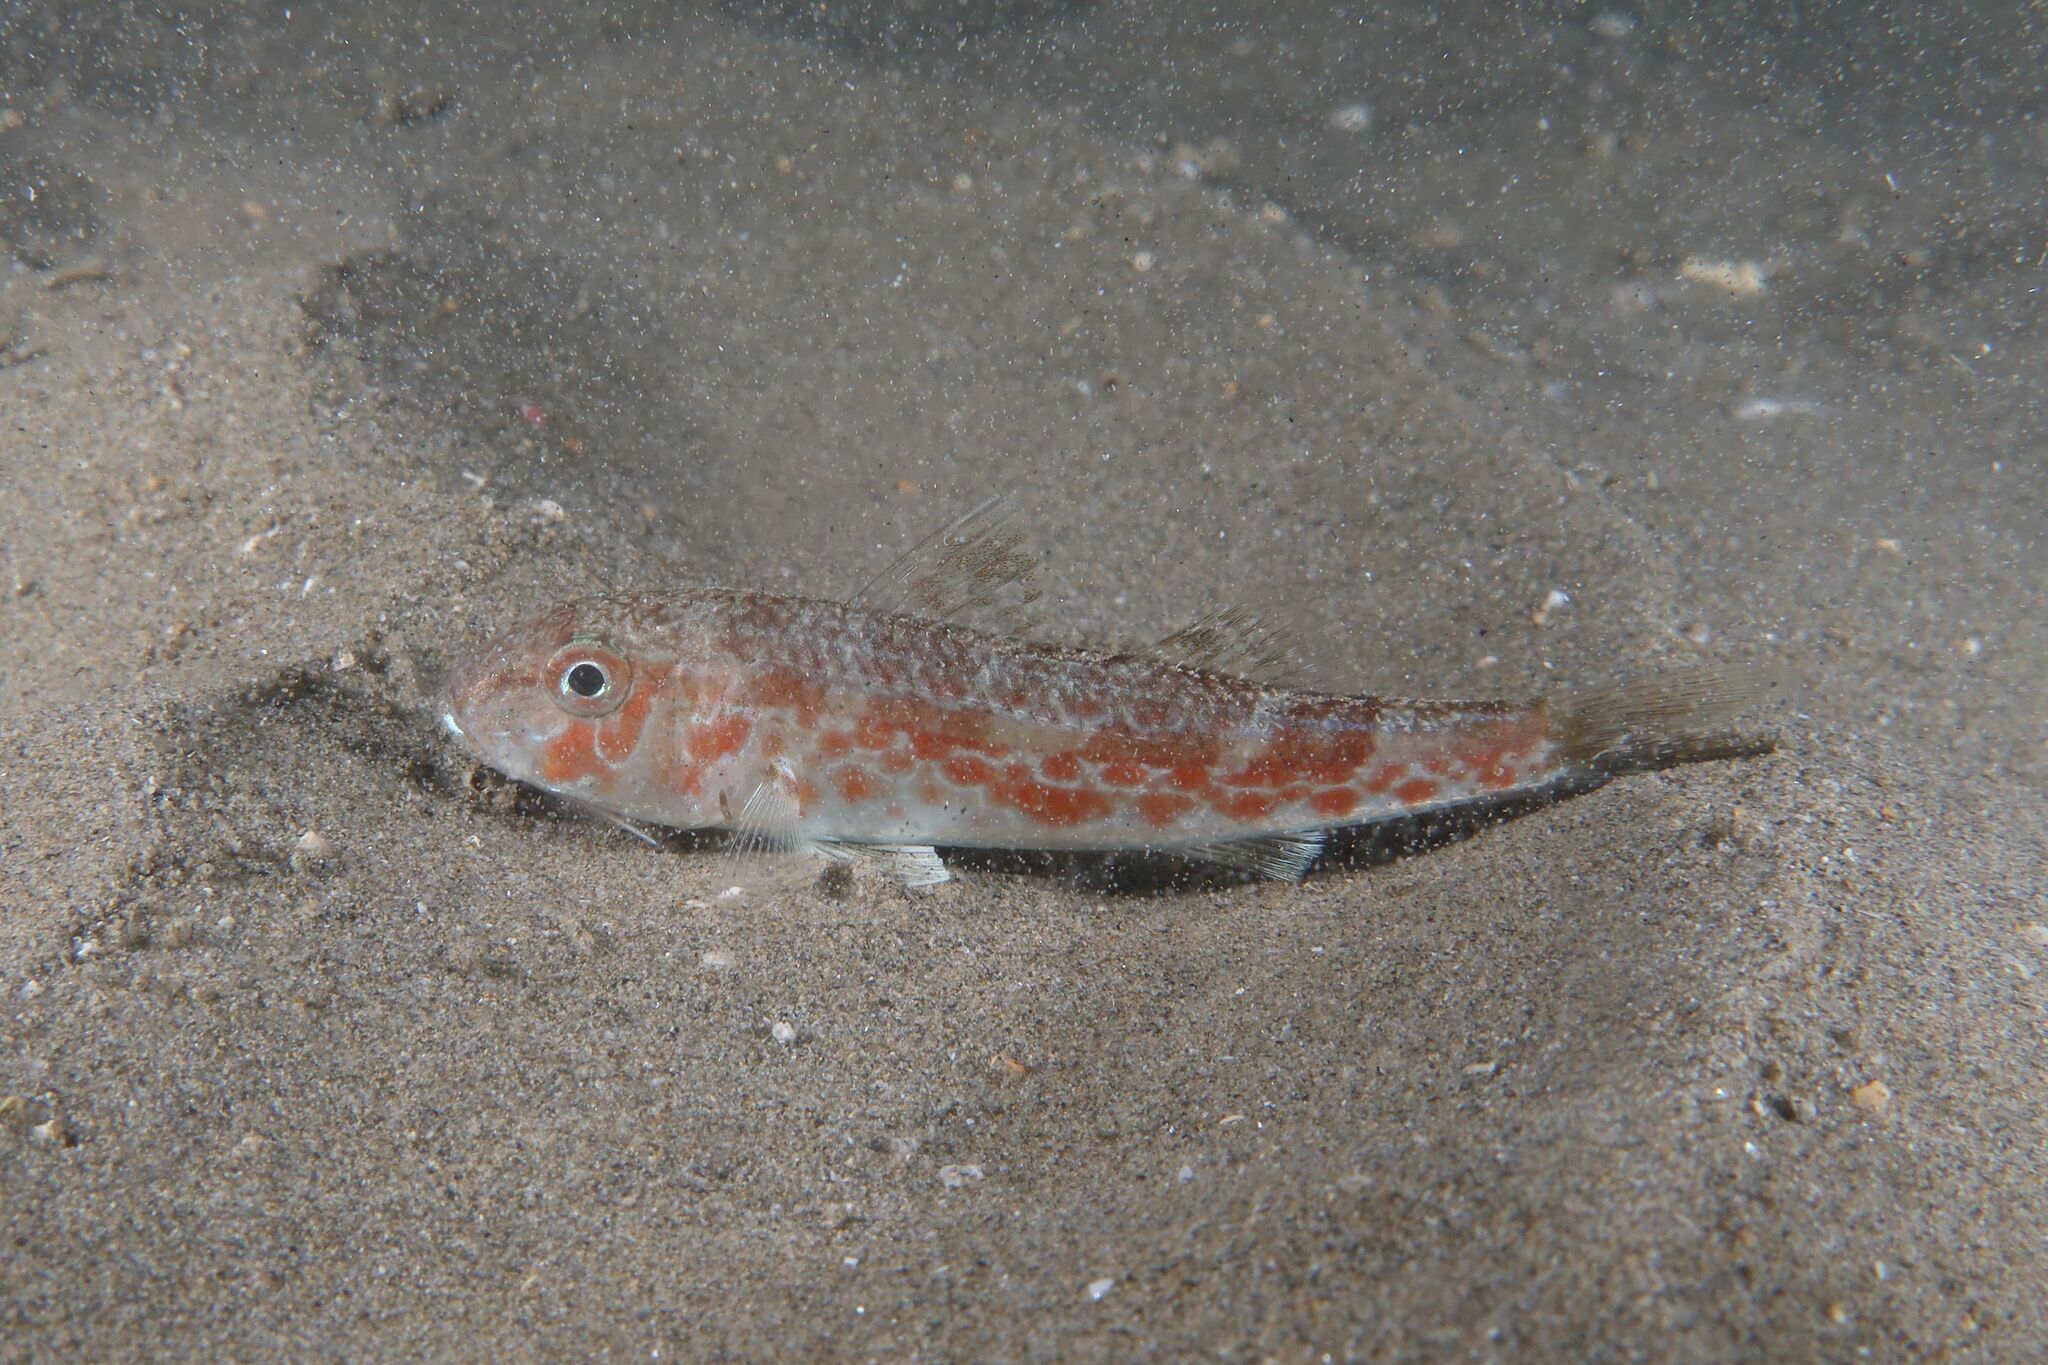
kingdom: Animalia
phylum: Chordata
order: Perciformes
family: Mullidae
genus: Mullus
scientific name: Mullus barbatus
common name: Blunt-snouted mullet
